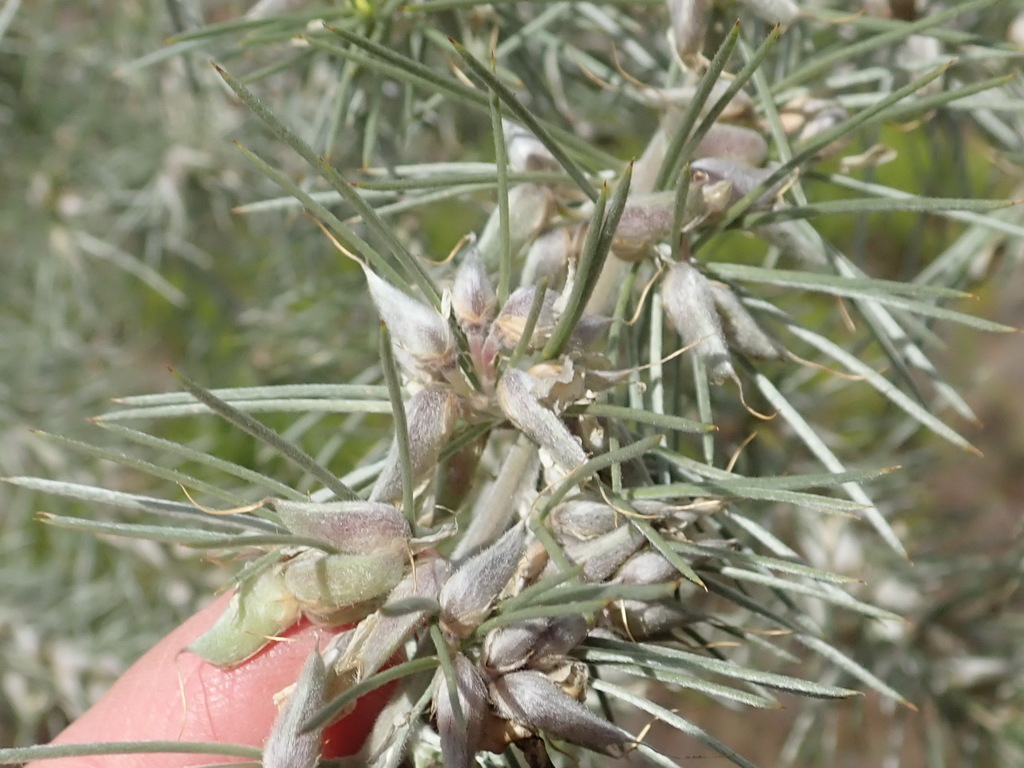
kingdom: Plantae
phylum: Tracheophyta
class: Magnoliopsida
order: Fabales
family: Fabaceae
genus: Aspalathus
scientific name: Aspalathus florifera
